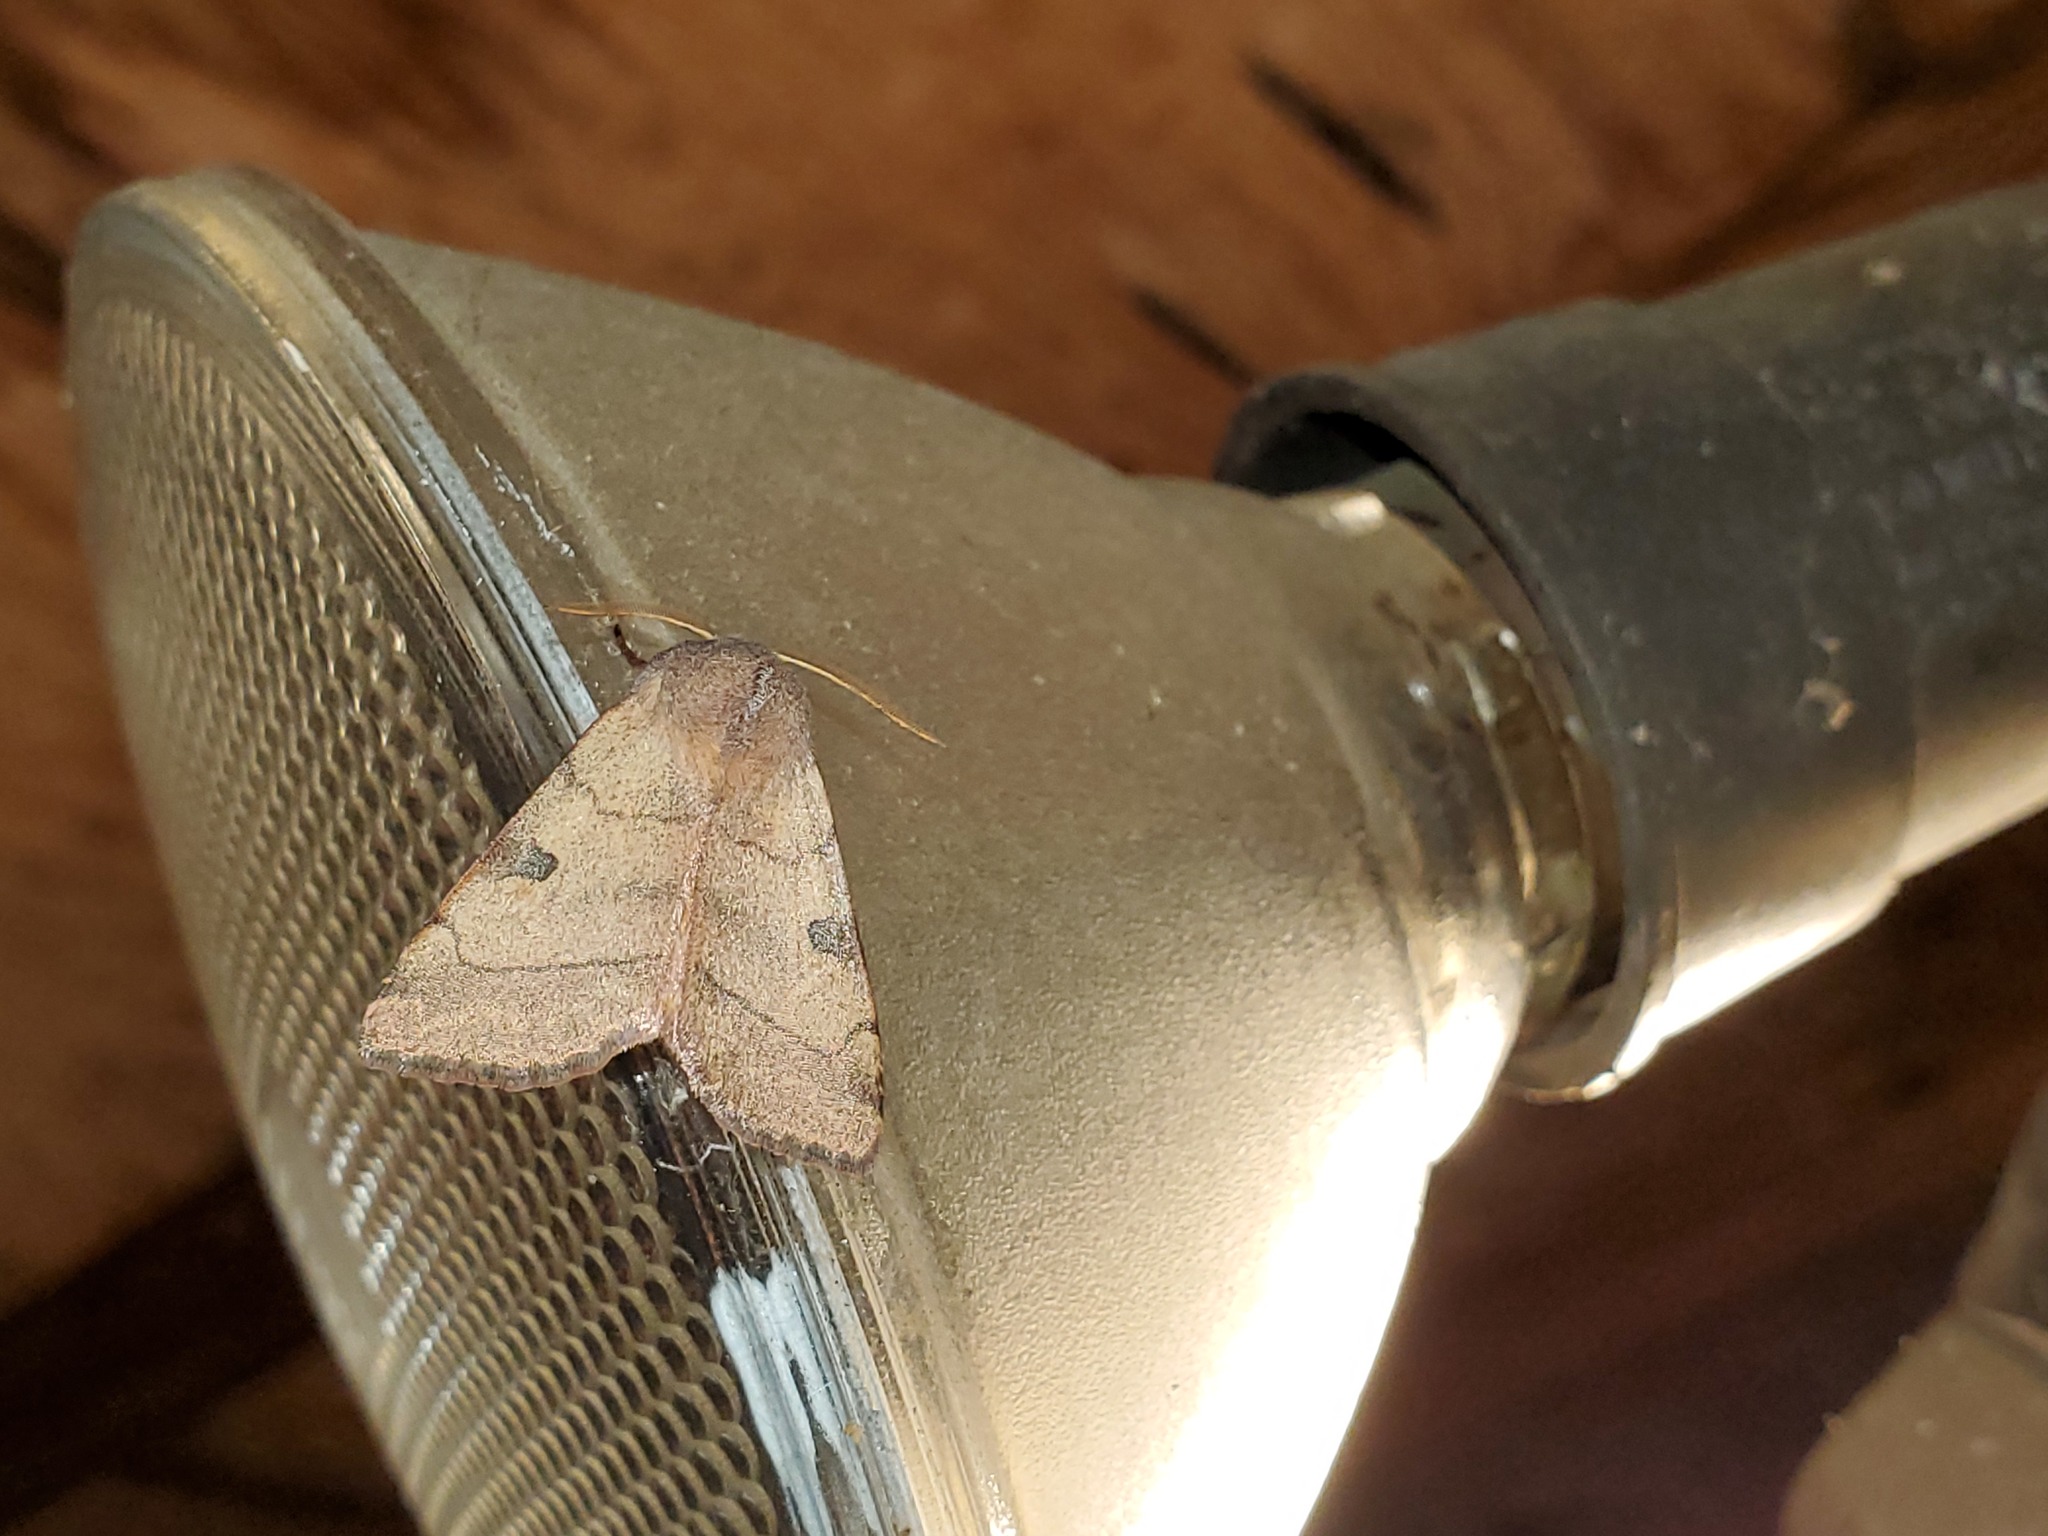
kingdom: Animalia
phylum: Arthropoda
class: Insecta
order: Lepidoptera
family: Noctuidae
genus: Choephora
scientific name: Choephora fungorum
